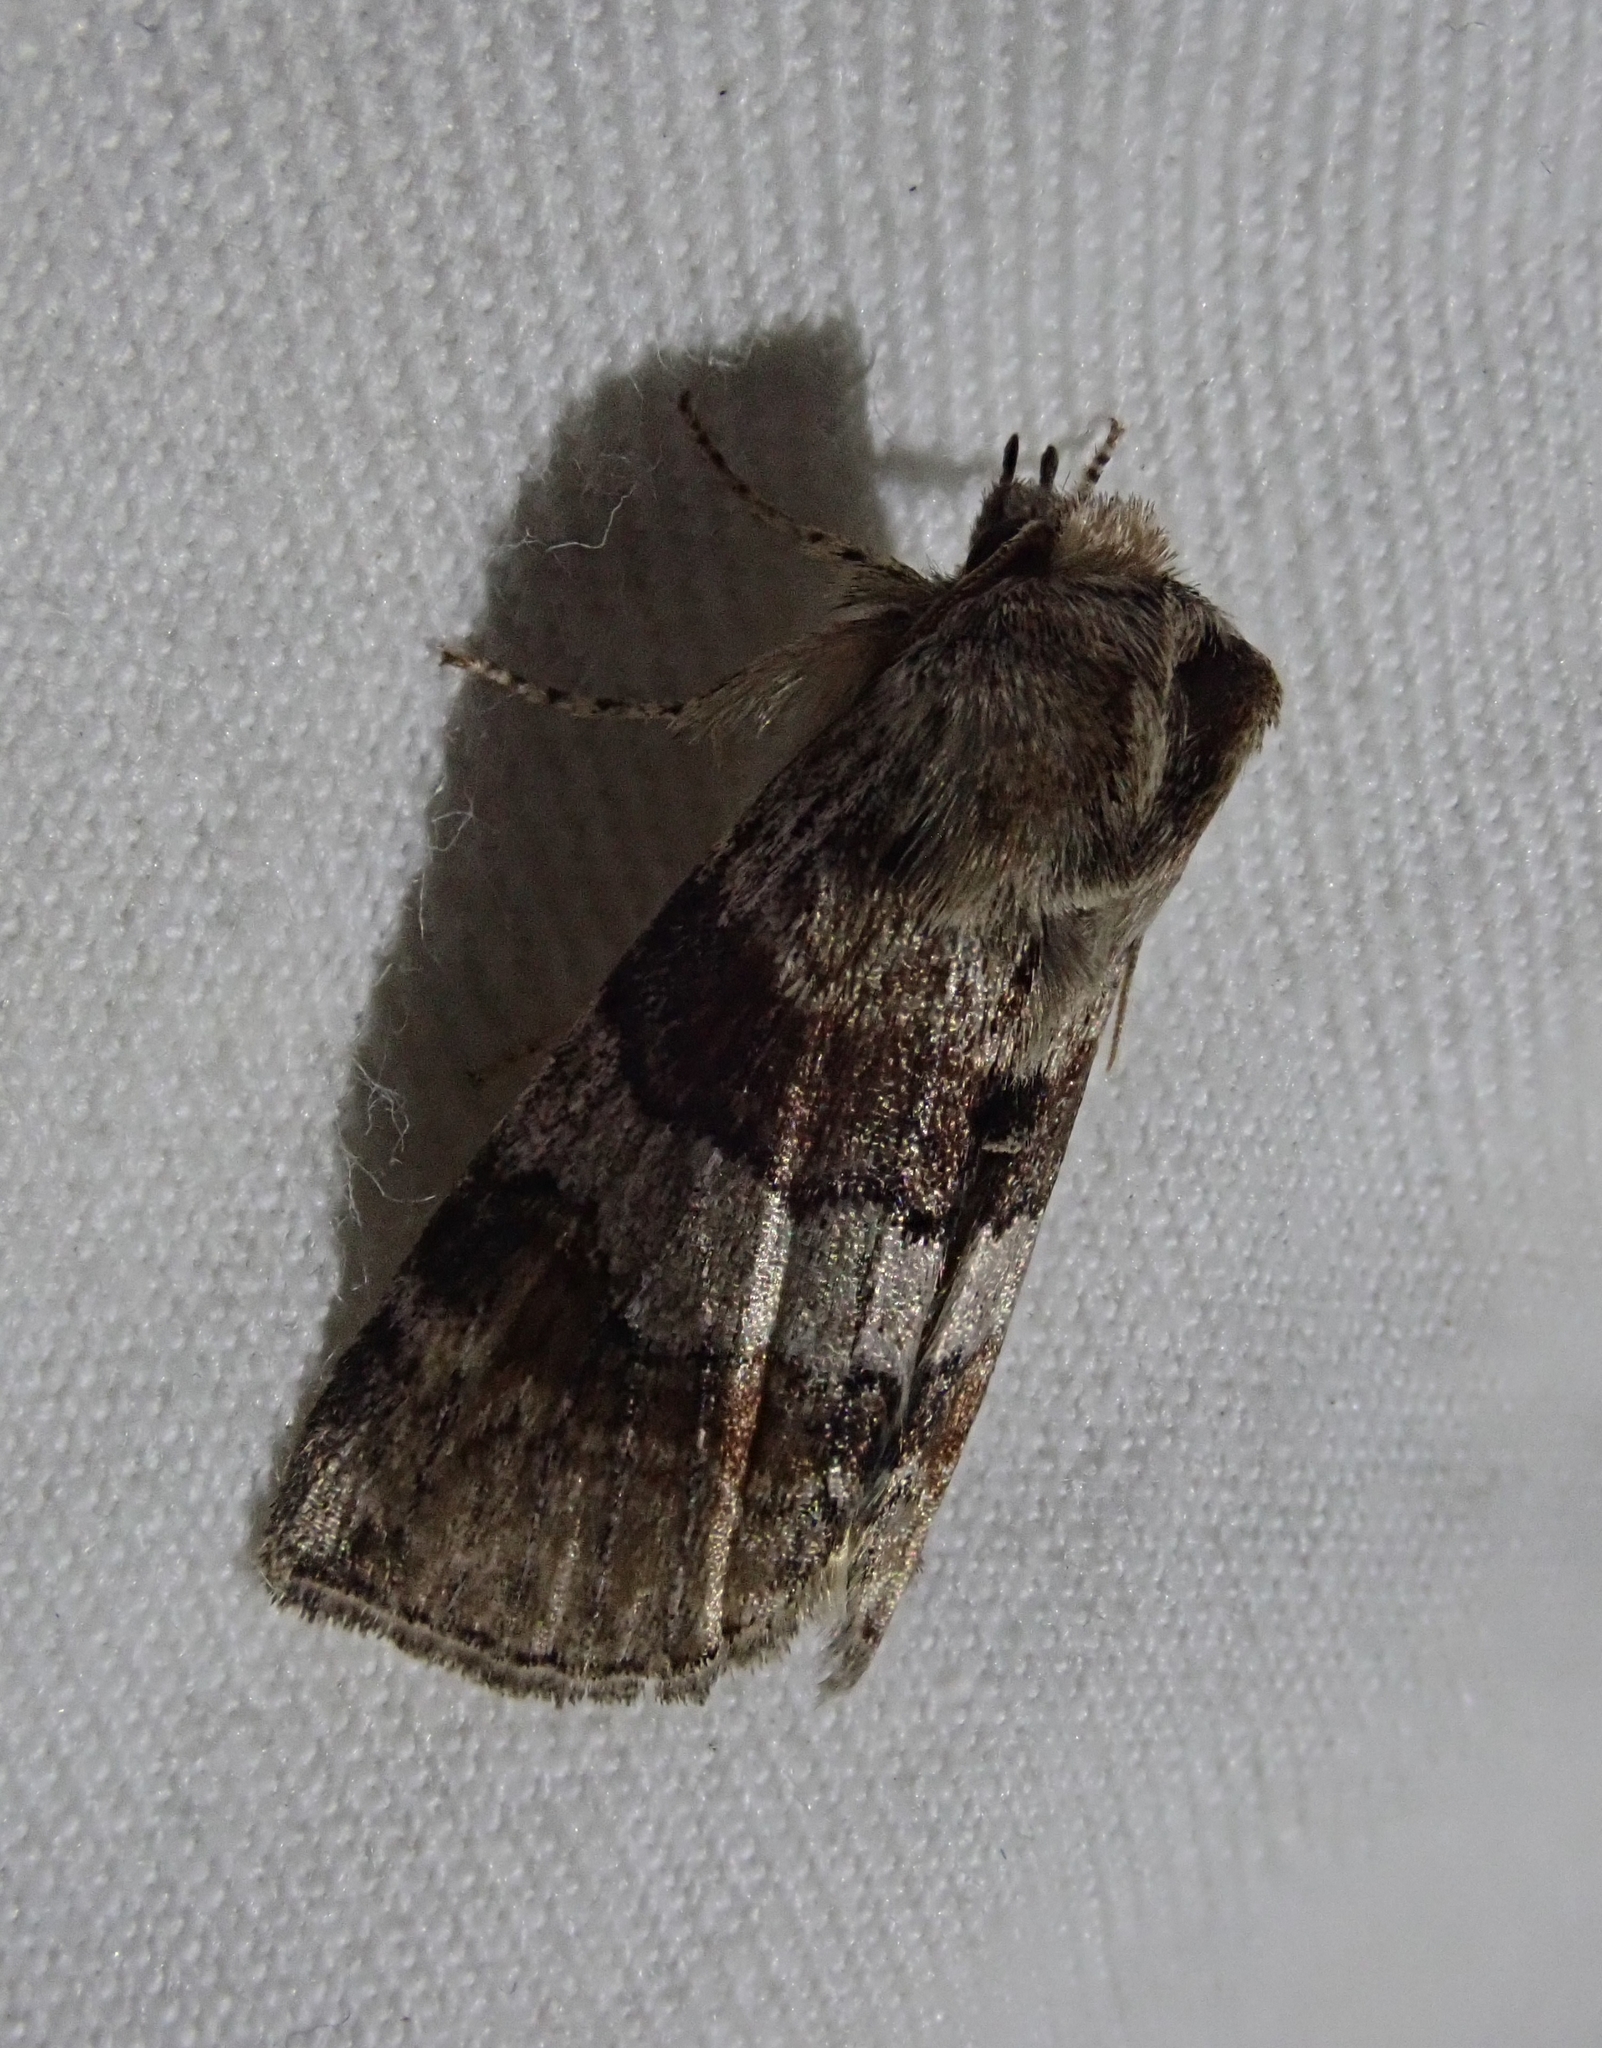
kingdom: Animalia
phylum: Arthropoda
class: Insecta
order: Lepidoptera
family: Drepanidae
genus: Cymatophorina
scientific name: Cymatophorina diluta
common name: Oak lutestring
